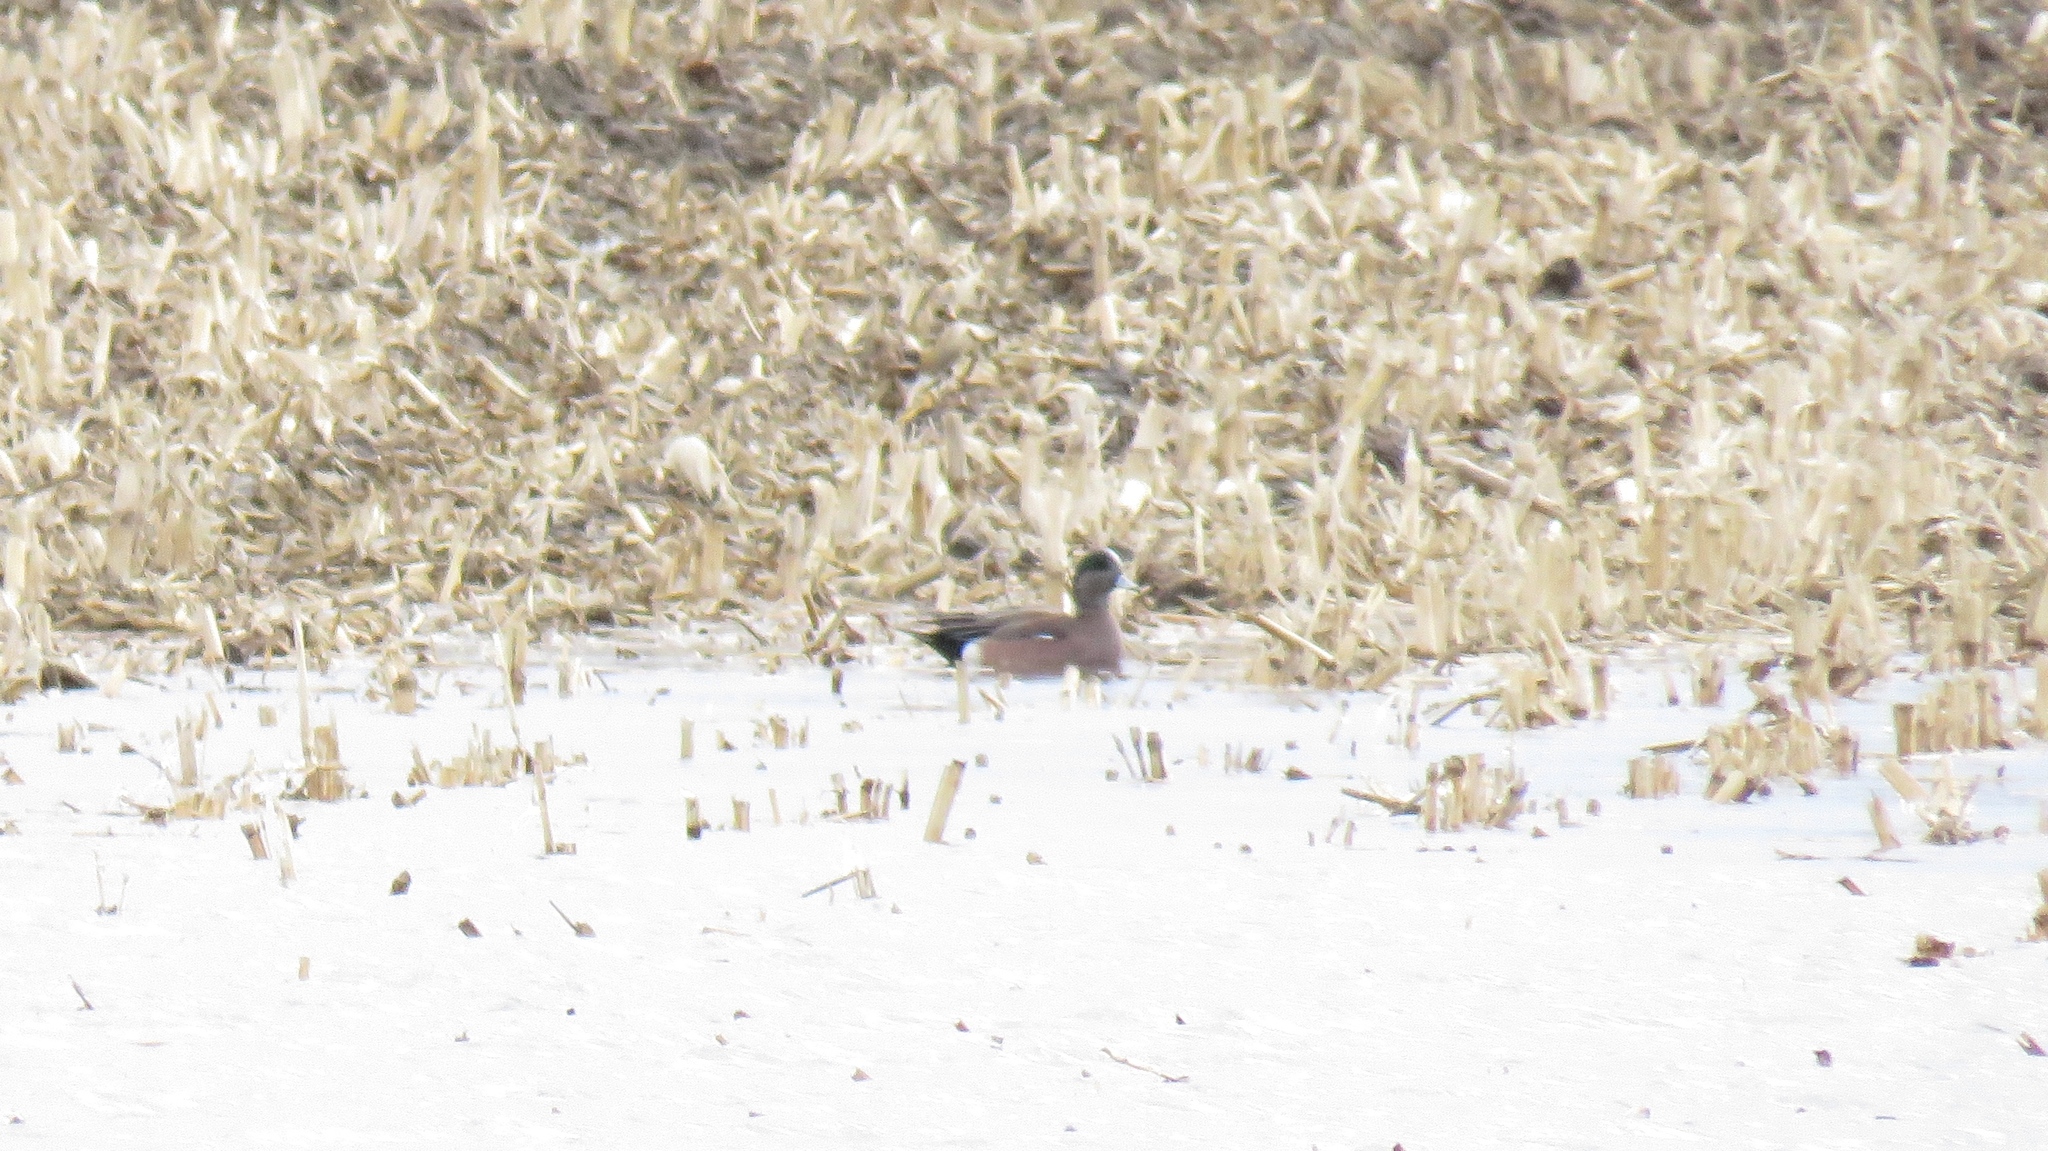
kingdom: Animalia
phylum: Chordata
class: Aves
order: Anseriformes
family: Anatidae
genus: Mareca
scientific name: Mareca americana
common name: American wigeon
